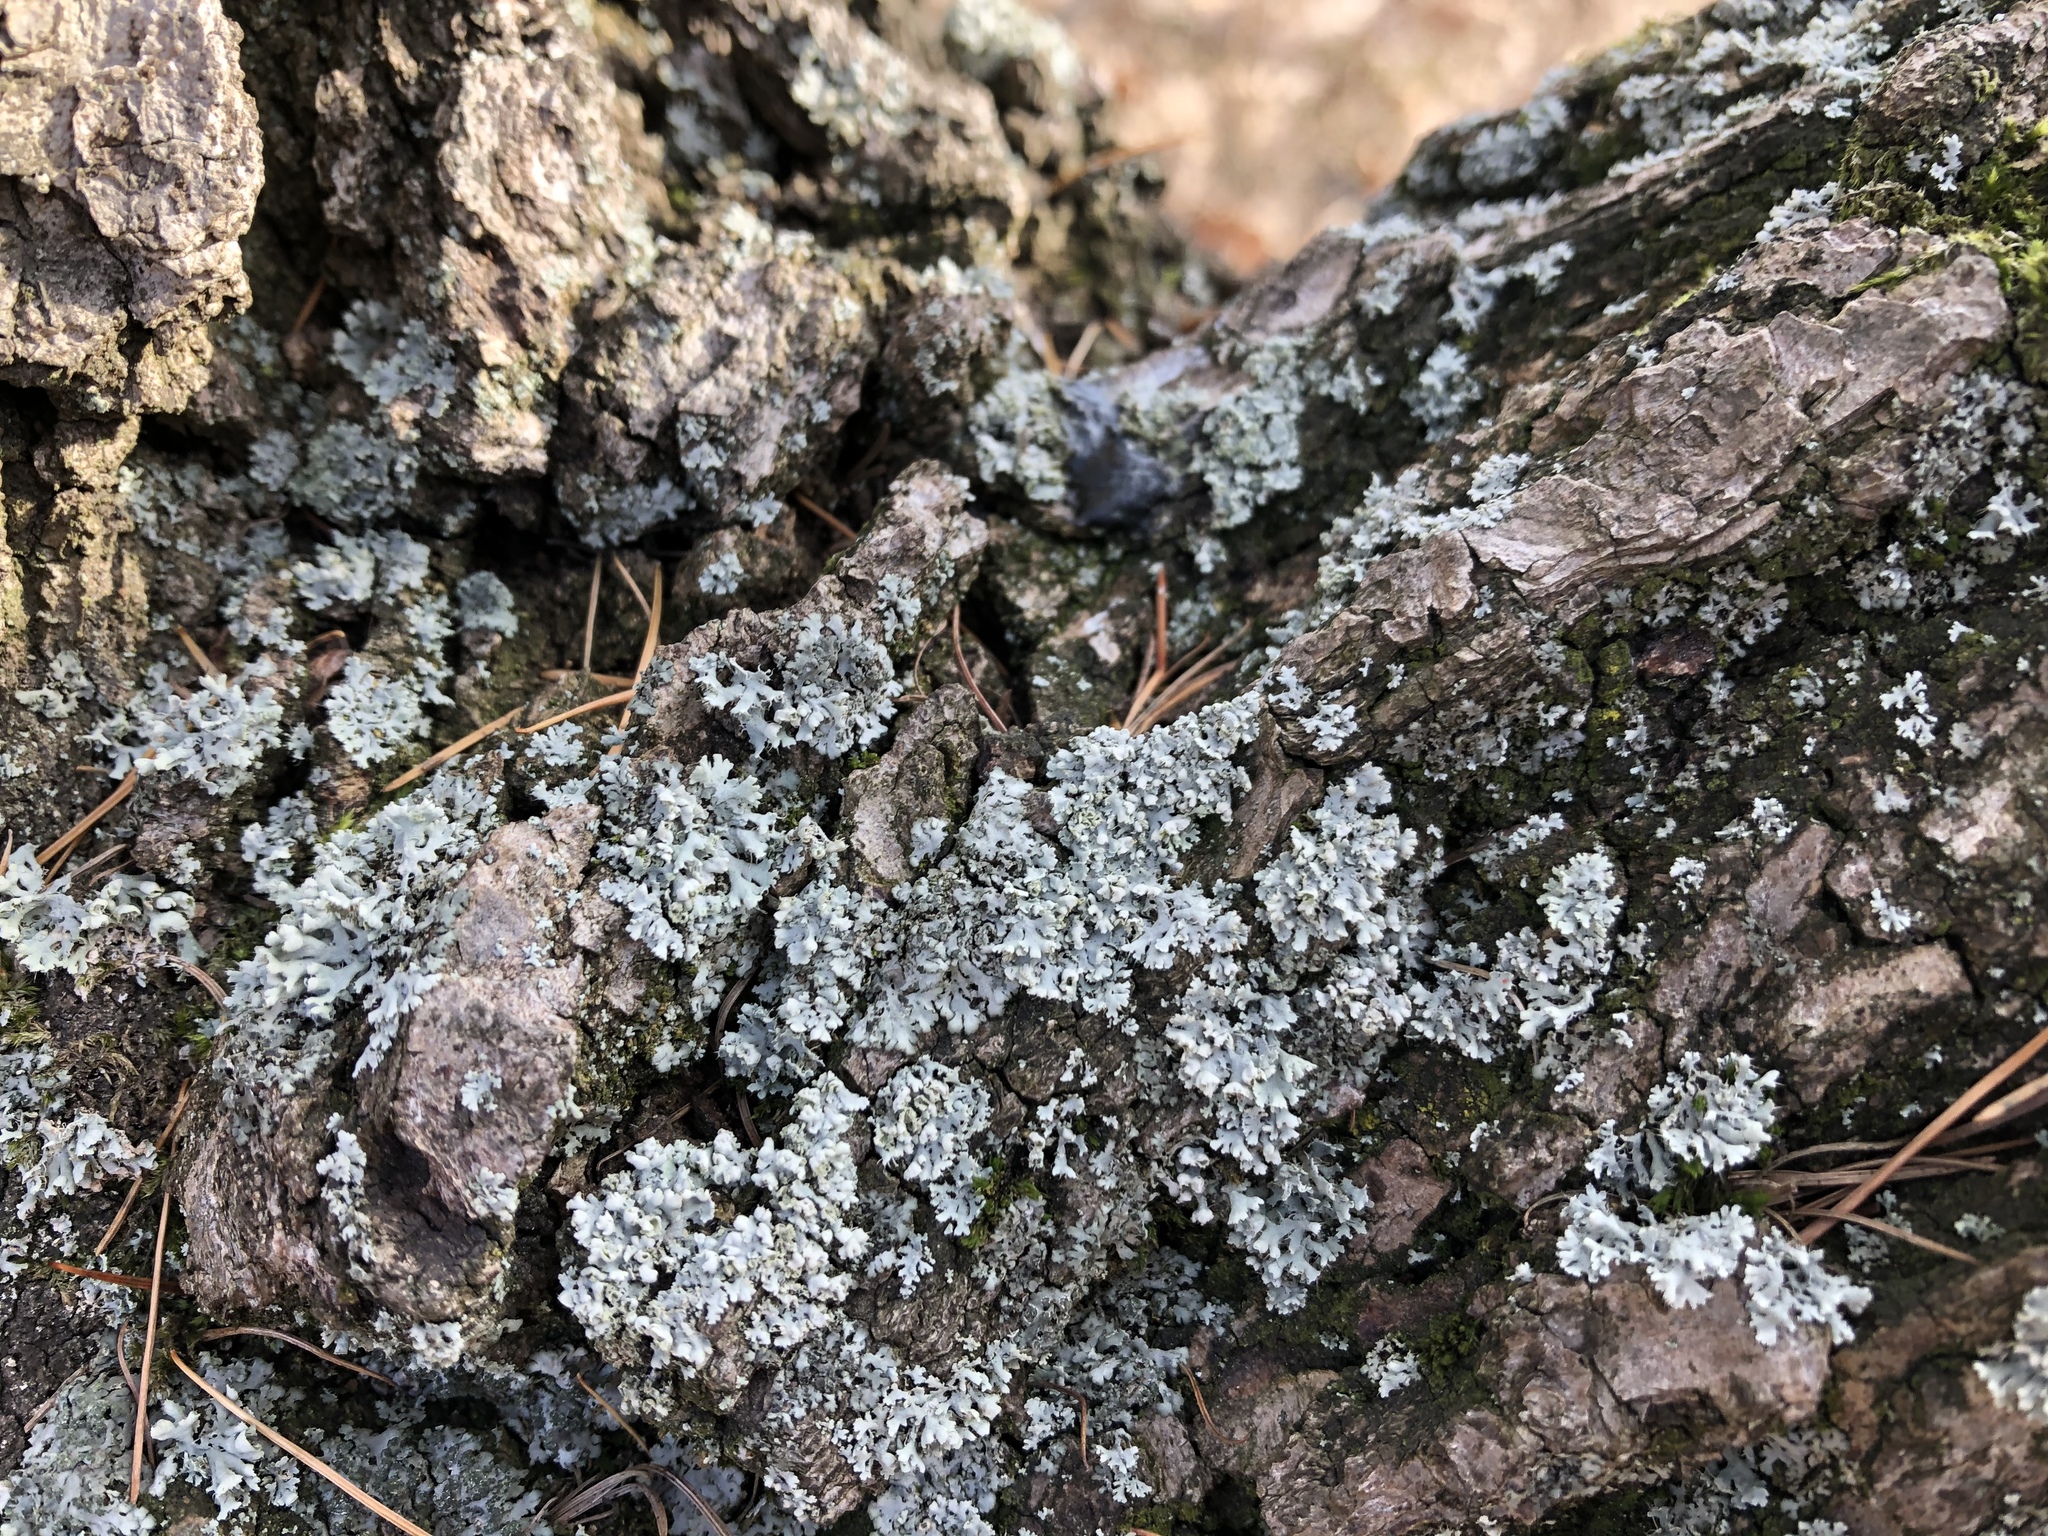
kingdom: Fungi
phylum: Ascomycota
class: Lecanoromycetes
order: Caliciales
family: Physciaceae
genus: Physcia
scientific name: Physcia adscendens
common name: Hooded rosette lichen
